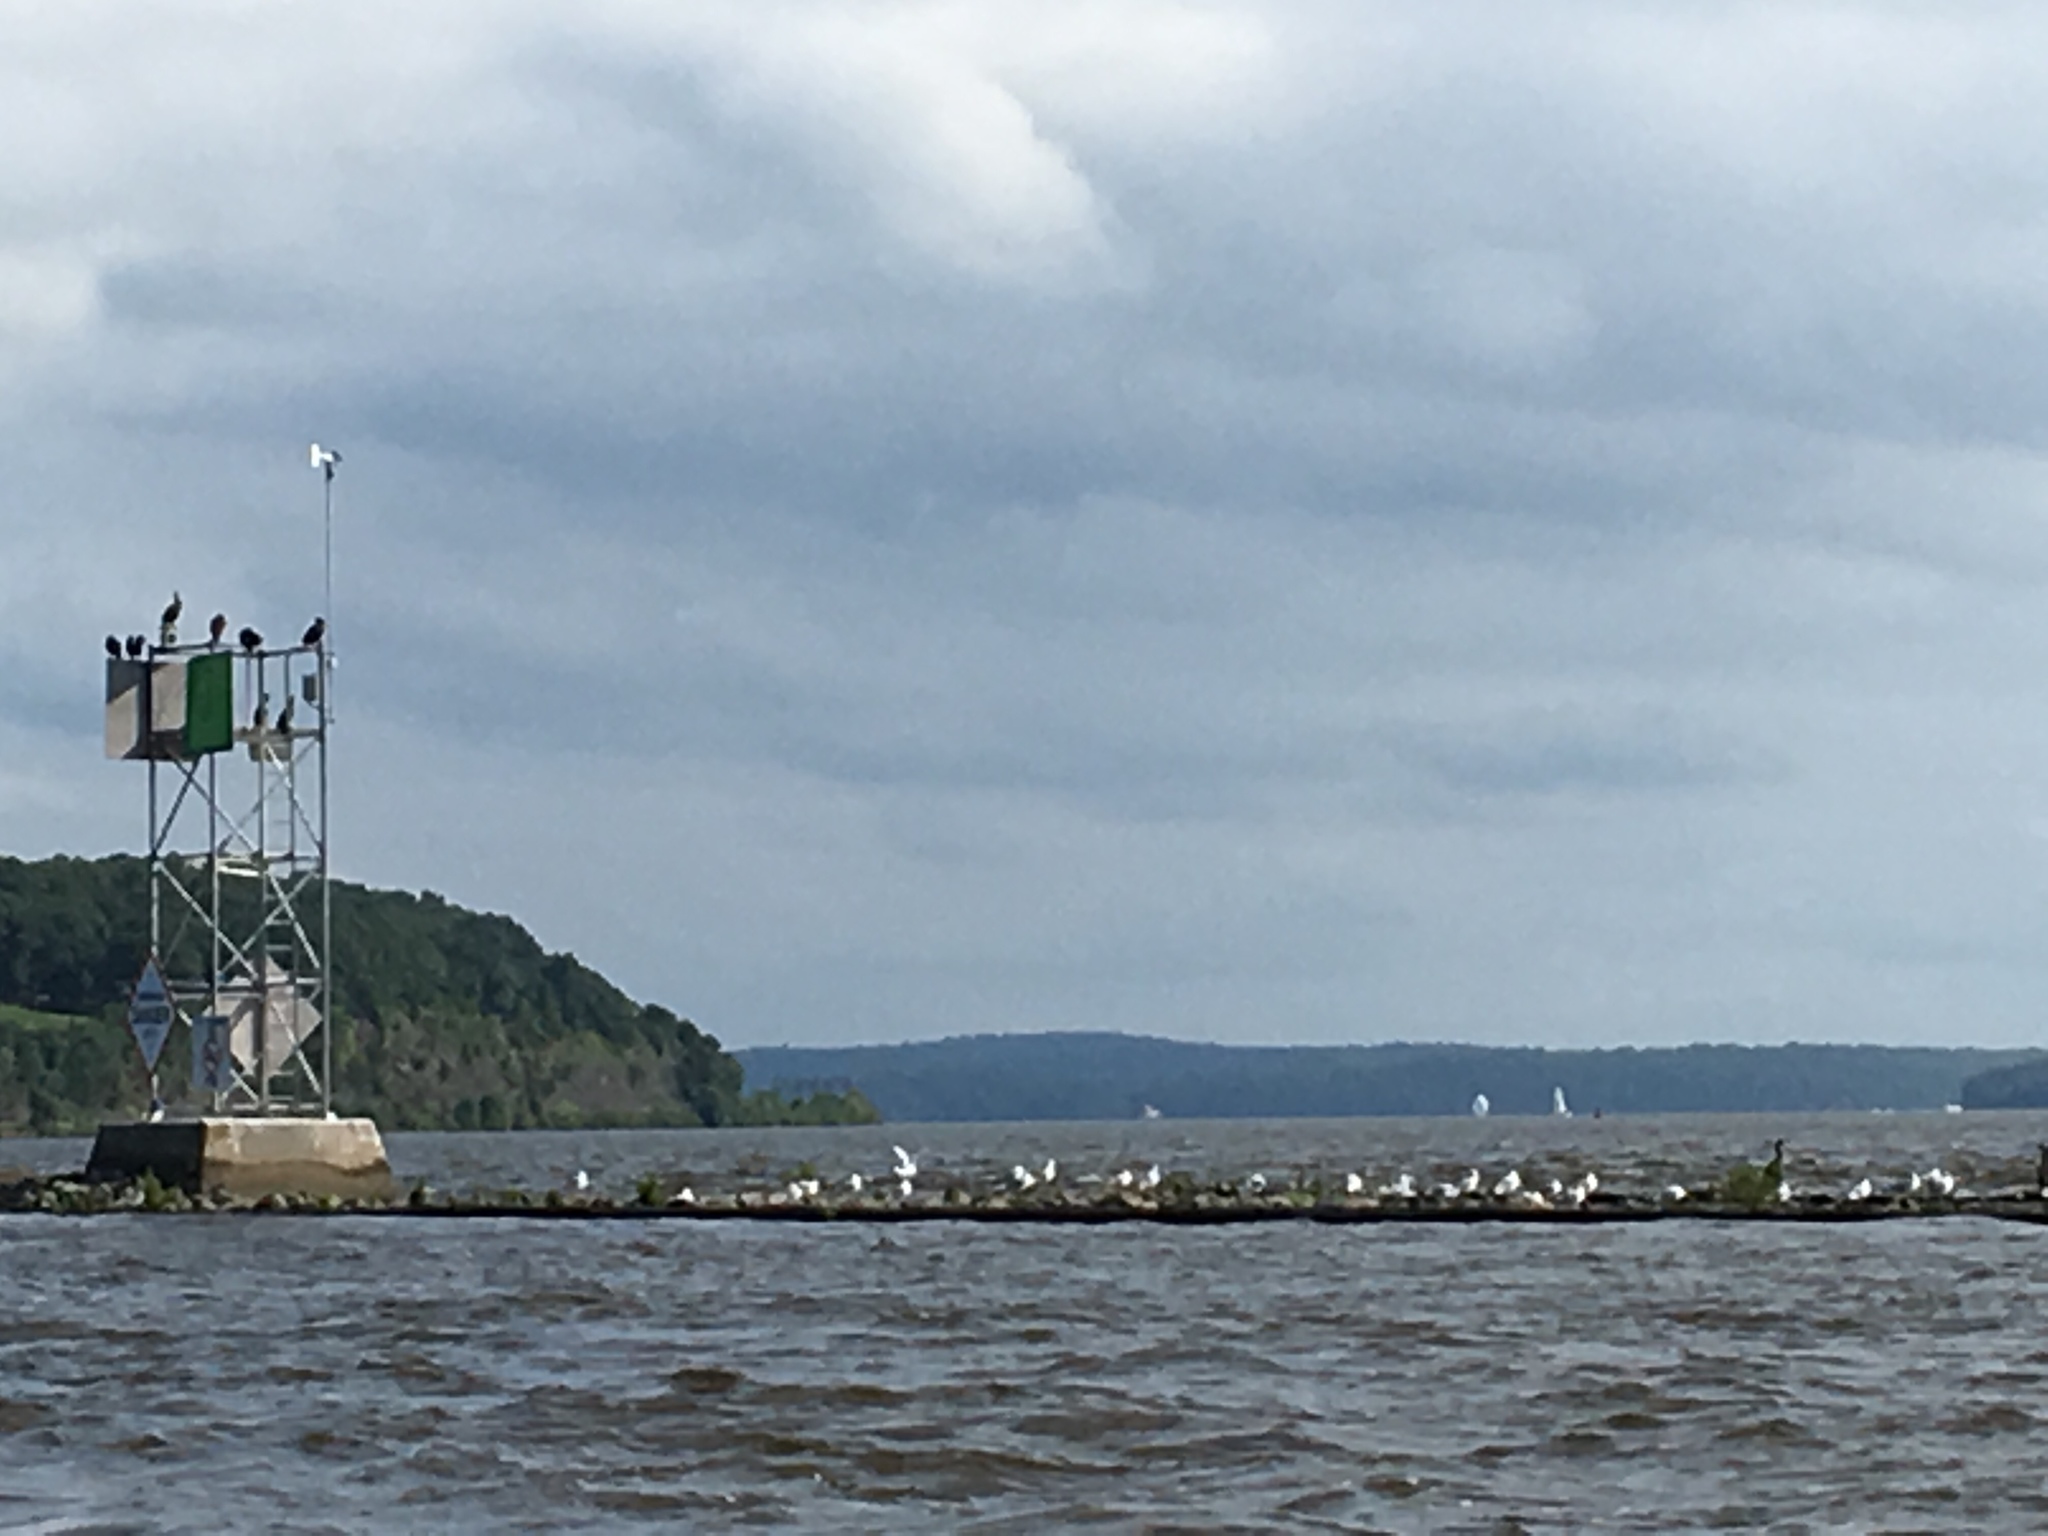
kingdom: Animalia
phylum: Chordata
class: Aves
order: Suliformes
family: Phalacrocoracidae
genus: Phalacrocorax
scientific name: Phalacrocorax auritus
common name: Double-crested cormorant
